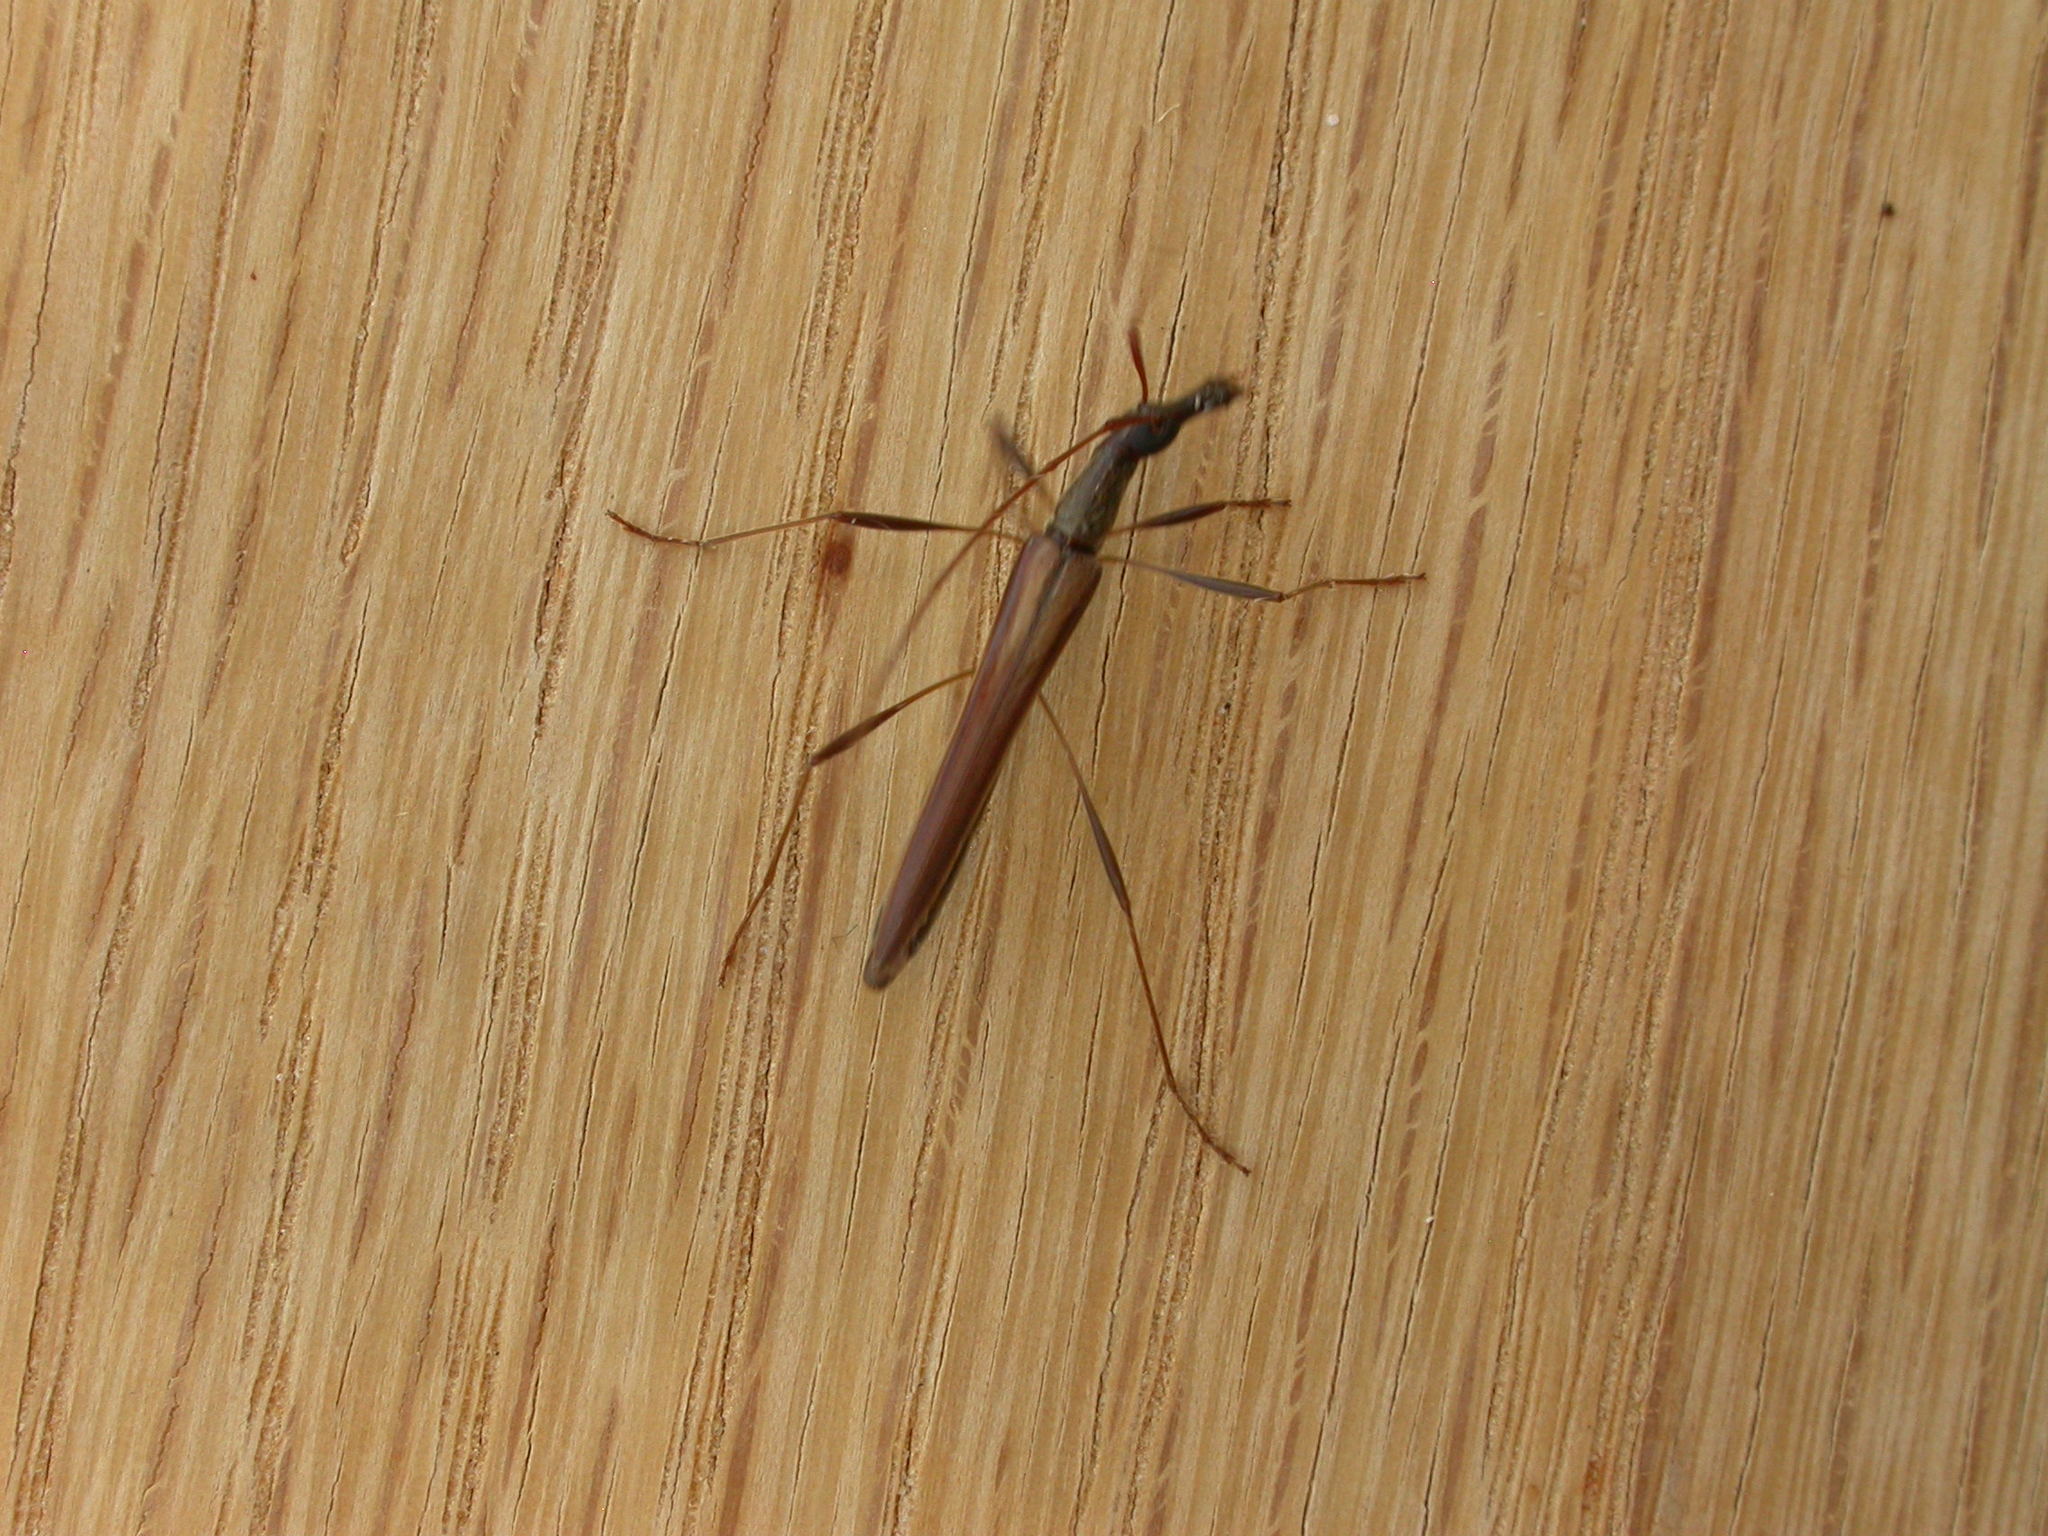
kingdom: Animalia
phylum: Arthropoda
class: Insecta
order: Coleoptera
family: Cerambycidae
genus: Rhinophthalmus
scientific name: Rhinophthalmus nasutus
